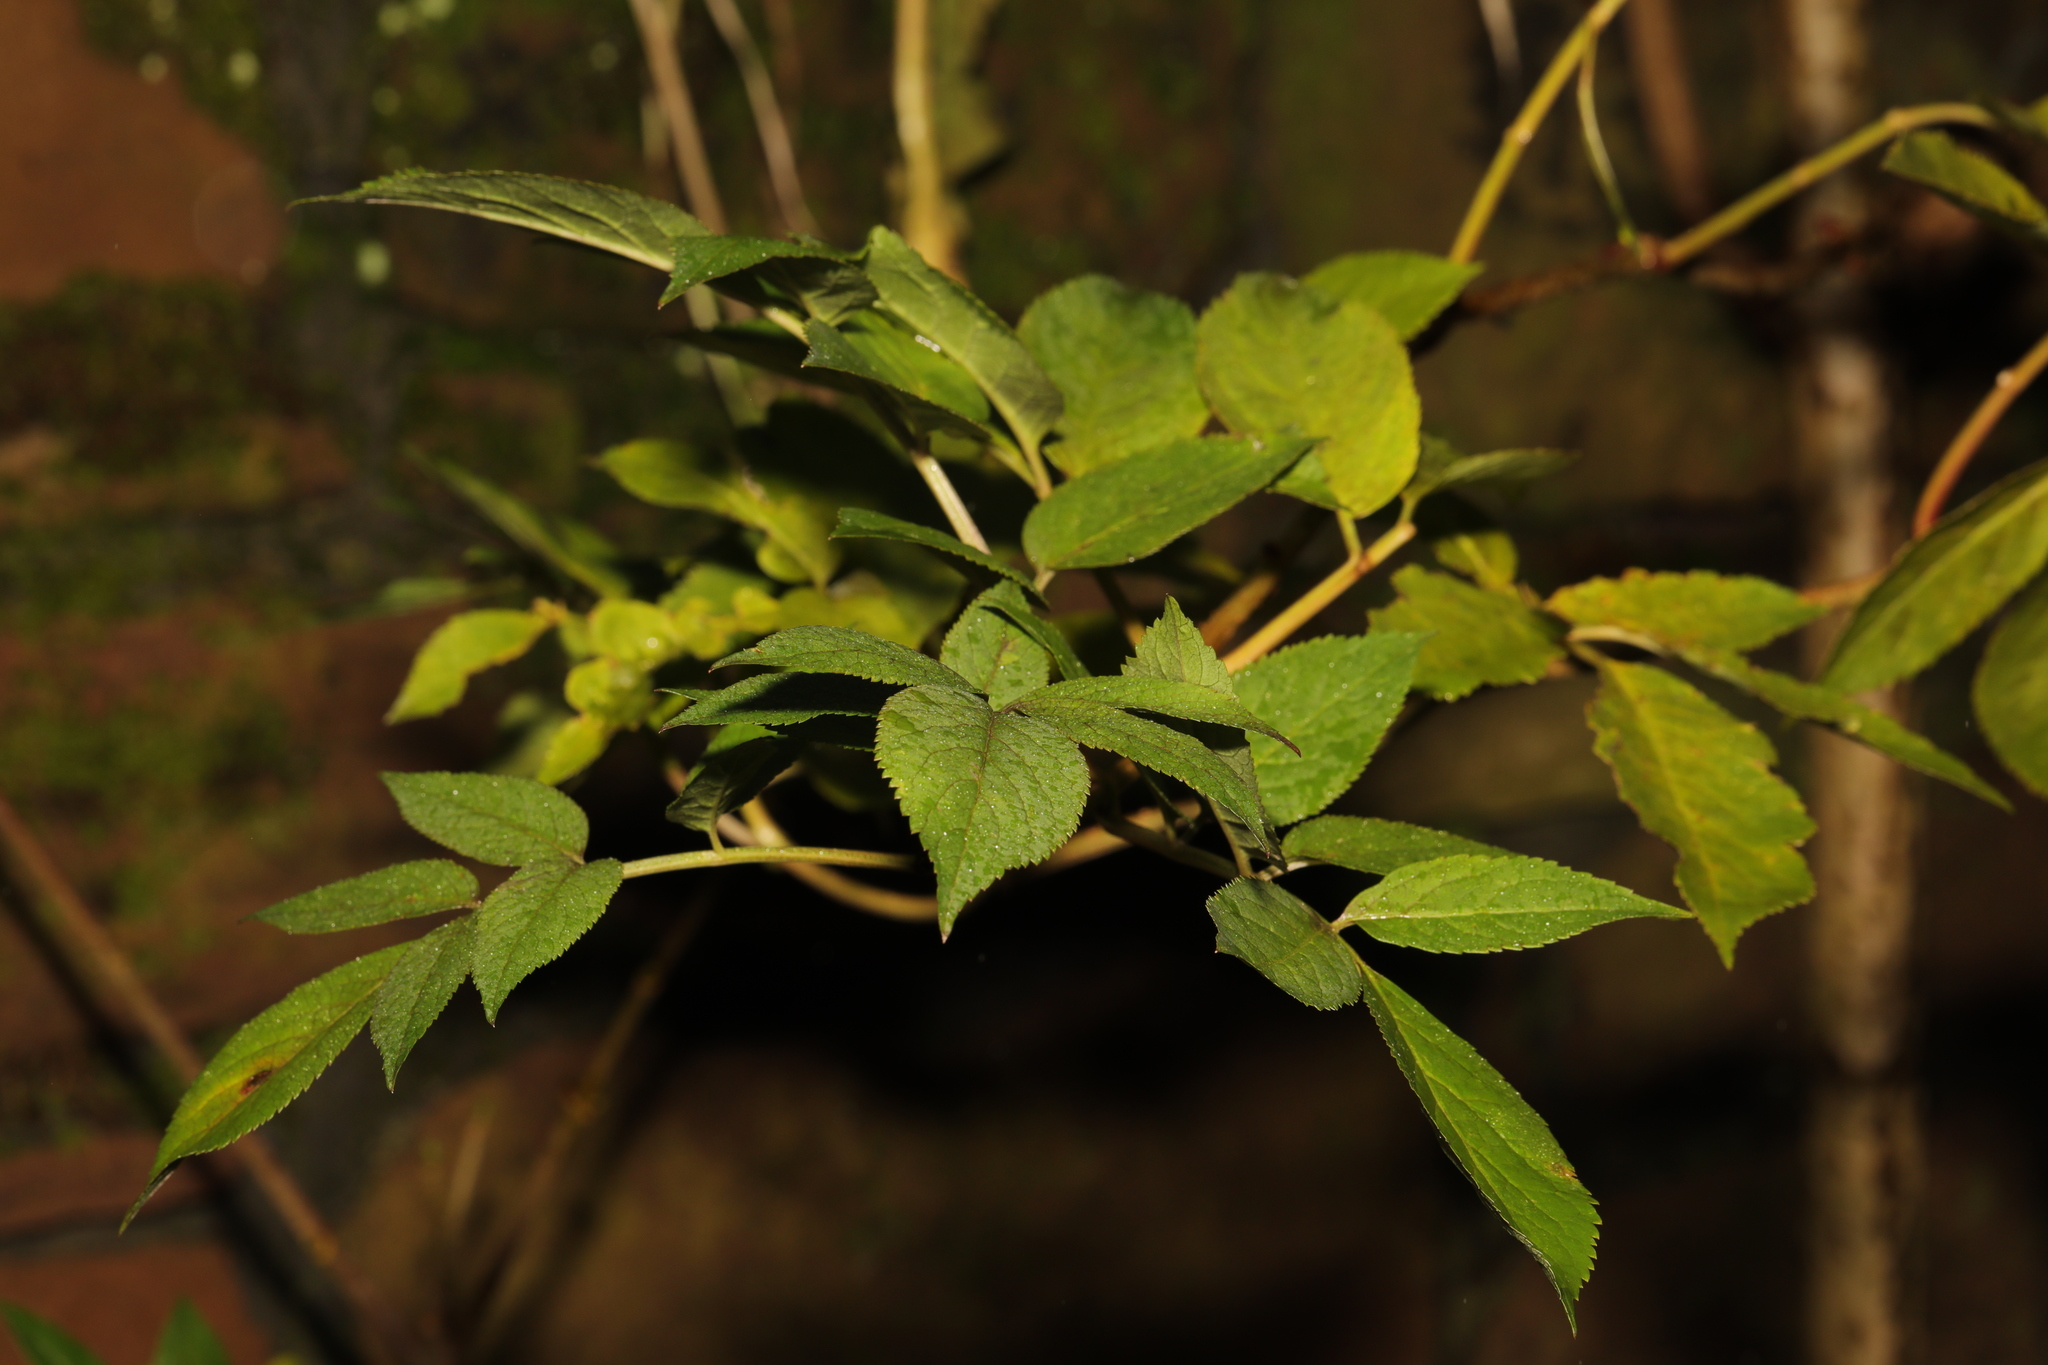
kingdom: Plantae
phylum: Tracheophyta
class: Magnoliopsida
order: Dipsacales
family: Viburnaceae
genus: Sambucus
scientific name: Sambucus nigra
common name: Elder
